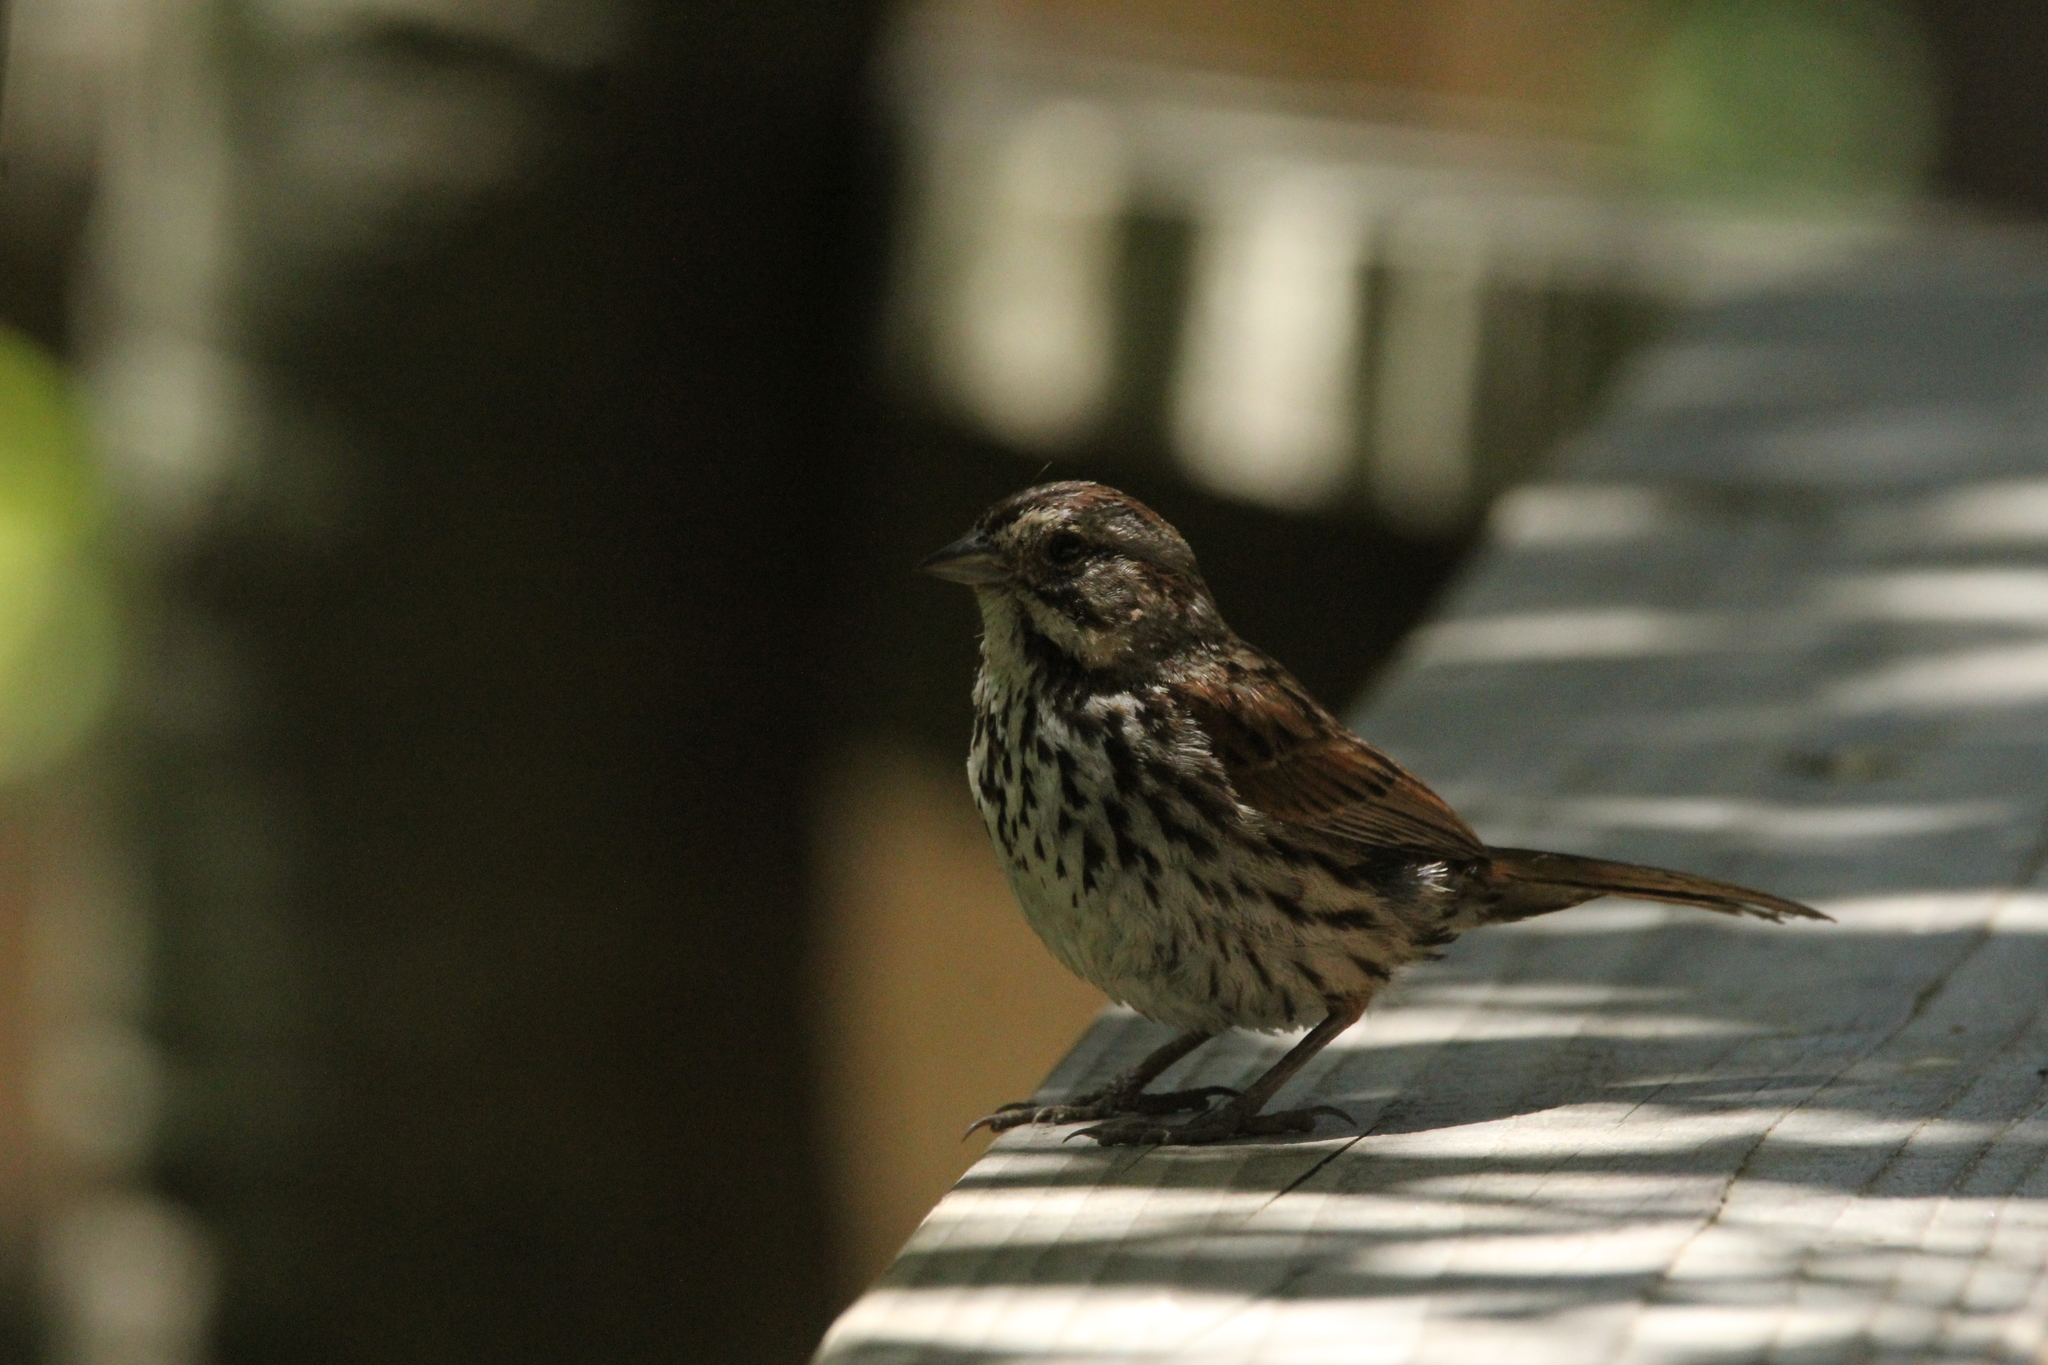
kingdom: Animalia
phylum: Chordata
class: Aves
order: Passeriformes
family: Passerellidae
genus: Melospiza
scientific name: Melospiza melodia
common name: Song sparrow
